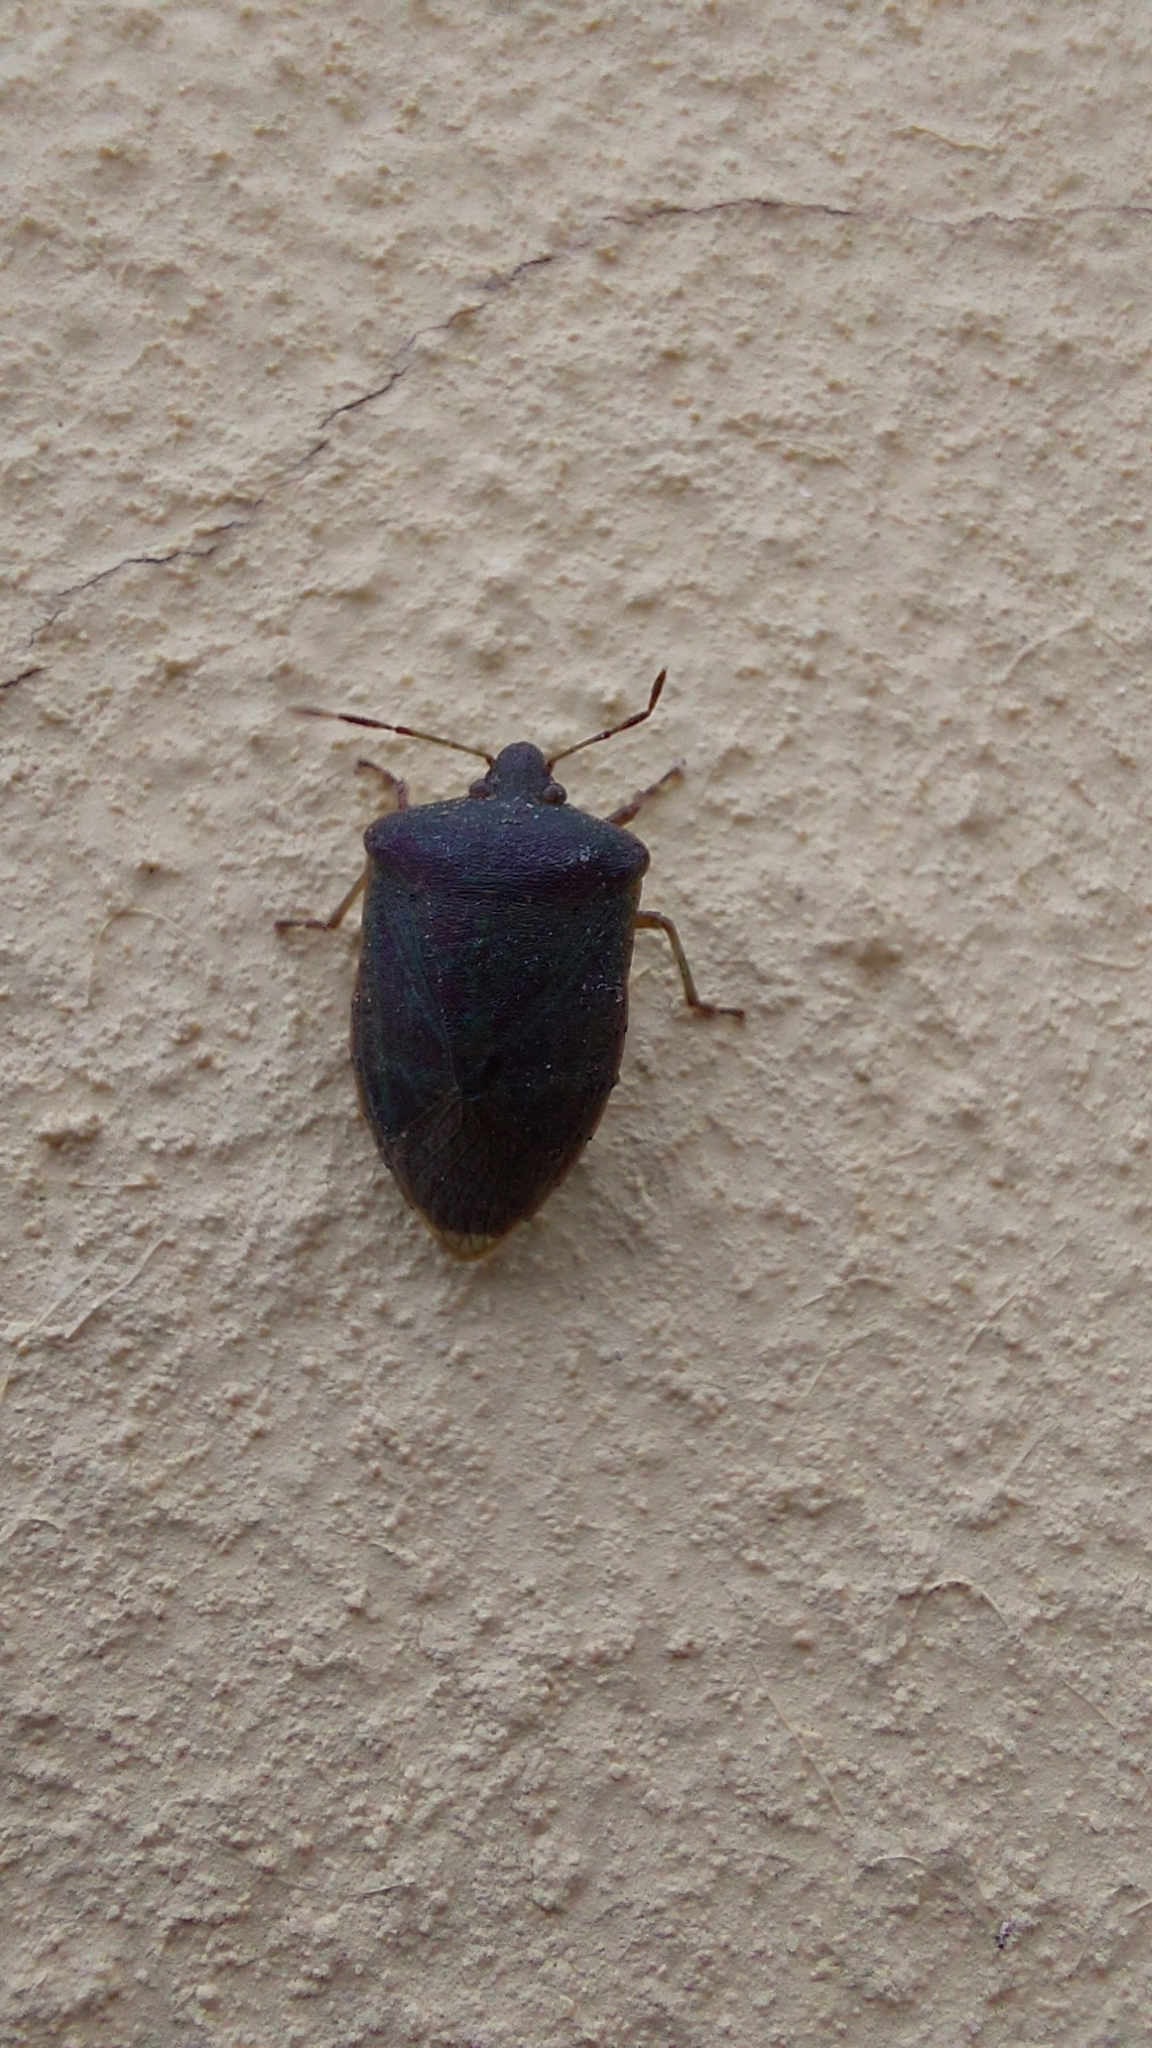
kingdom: Animalia
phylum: Arthropoda
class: Insecta
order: Hemiptera
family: Pentatomidae
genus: Nezara
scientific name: Nezara viridula
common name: Southern green stink bug
